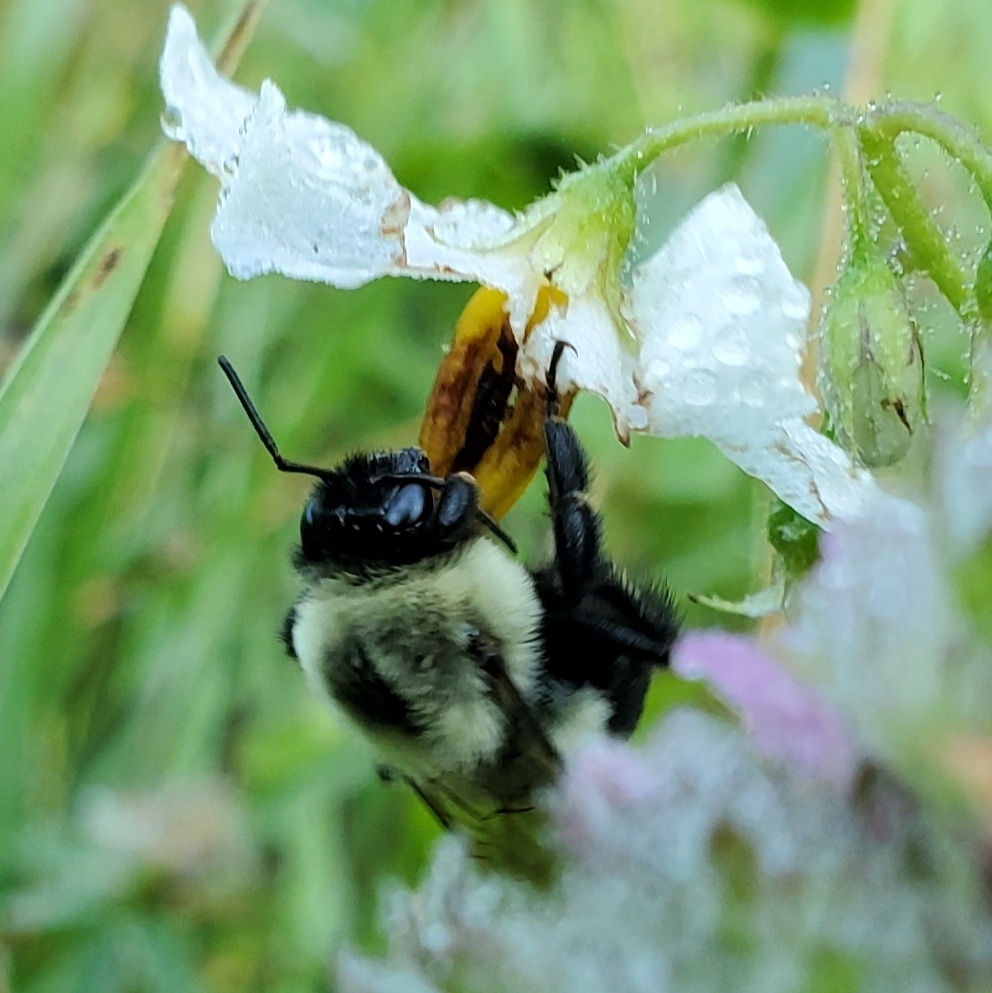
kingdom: Animalia
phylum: Arthropoda
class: Insecta
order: Hymenoptera
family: Apidae
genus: Bombus
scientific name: Bombus impatiens
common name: Common eastern bumble bee
